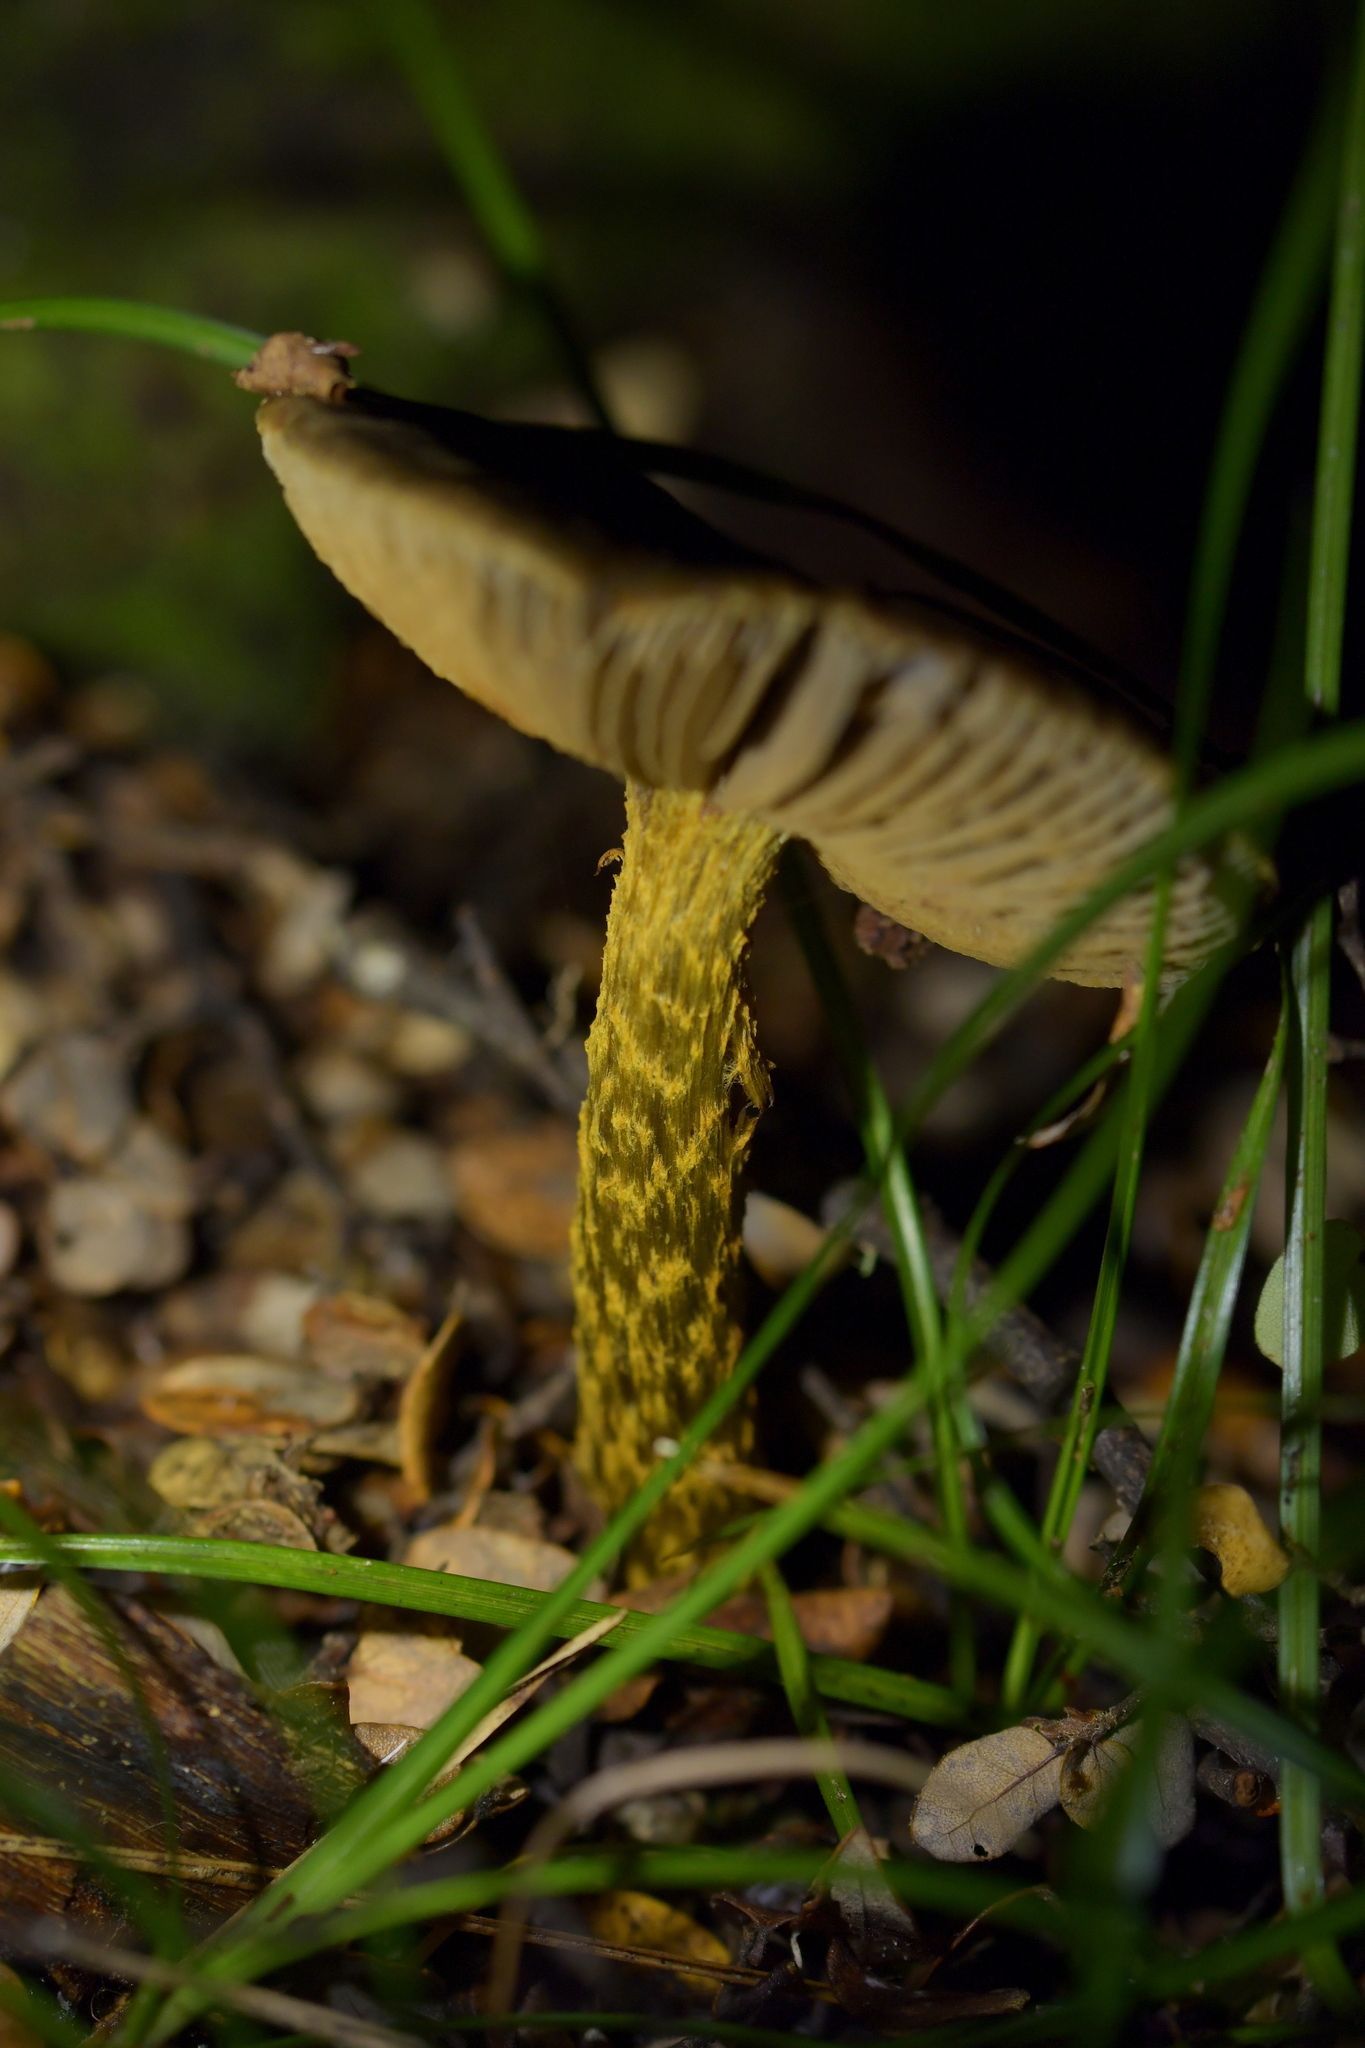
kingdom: Fungi
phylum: Basidiomycota
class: Agaricomycetes
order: Agaricales
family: Cortinariaceae
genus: Cortinarius
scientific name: Cortinarius elaiochrous
